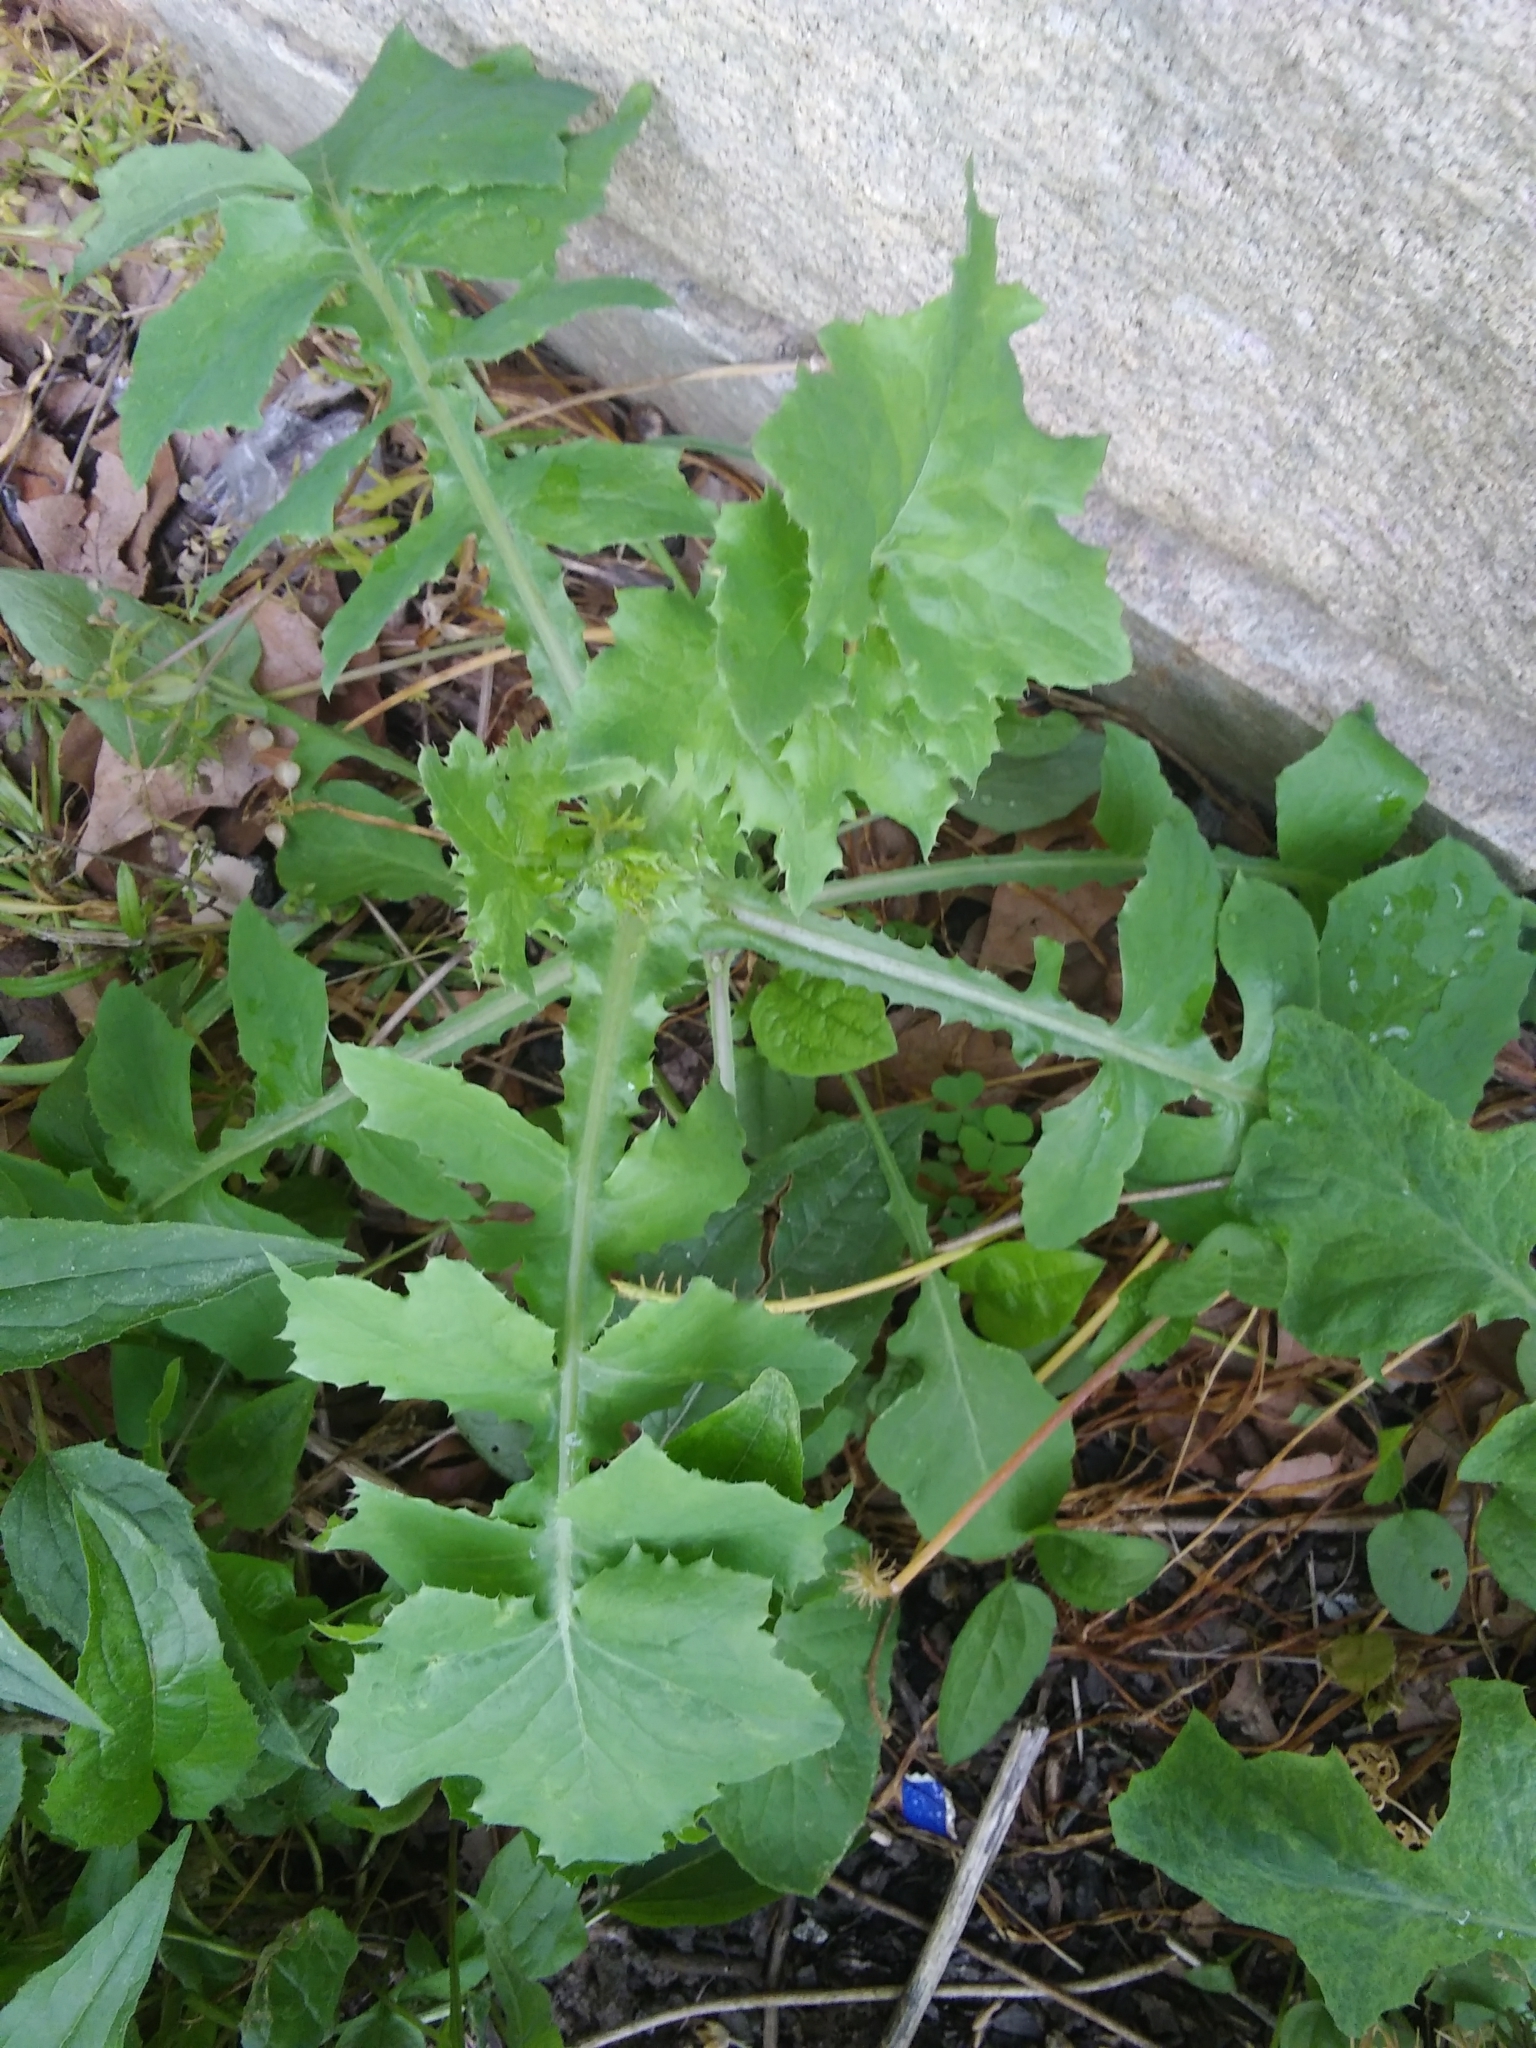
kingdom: Plantae
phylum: Tracheophyta
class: Magnoliopsida
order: Apiales
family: Apiaceae
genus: Pastinaca
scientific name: Pastinaca sativa
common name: Wild parsnip
